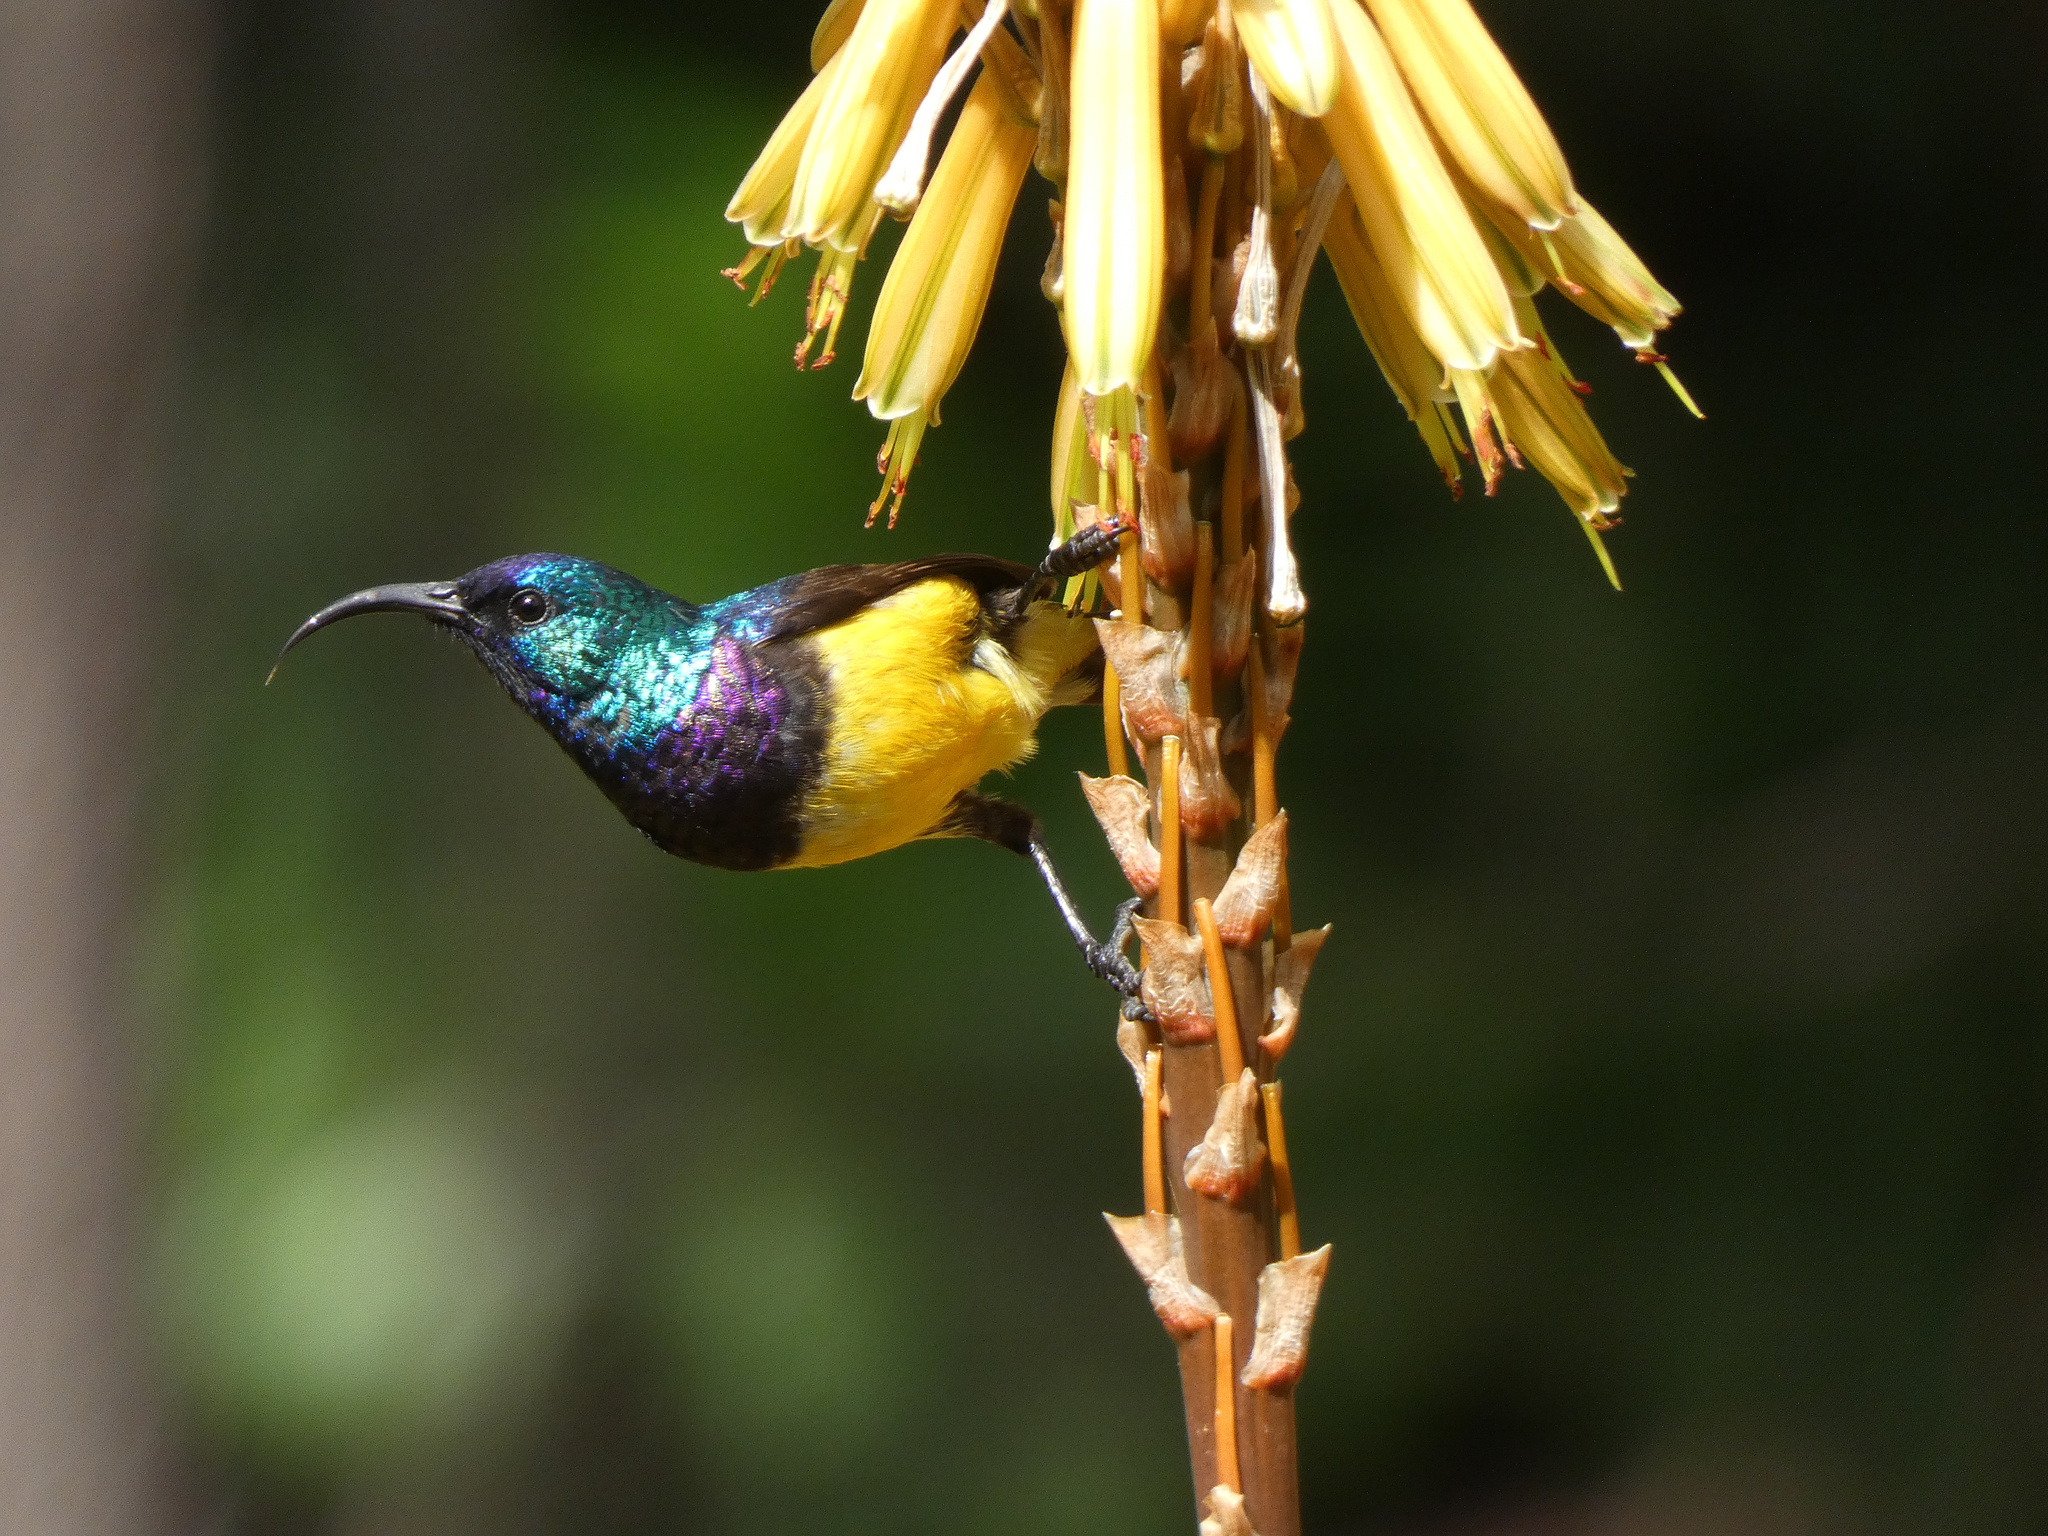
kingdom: Animalia
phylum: Chordata
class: Aves
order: Passeriformes
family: Nectariniidae
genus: Cinnyris
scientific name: Cinnyris venustus
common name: Variable sunbird
